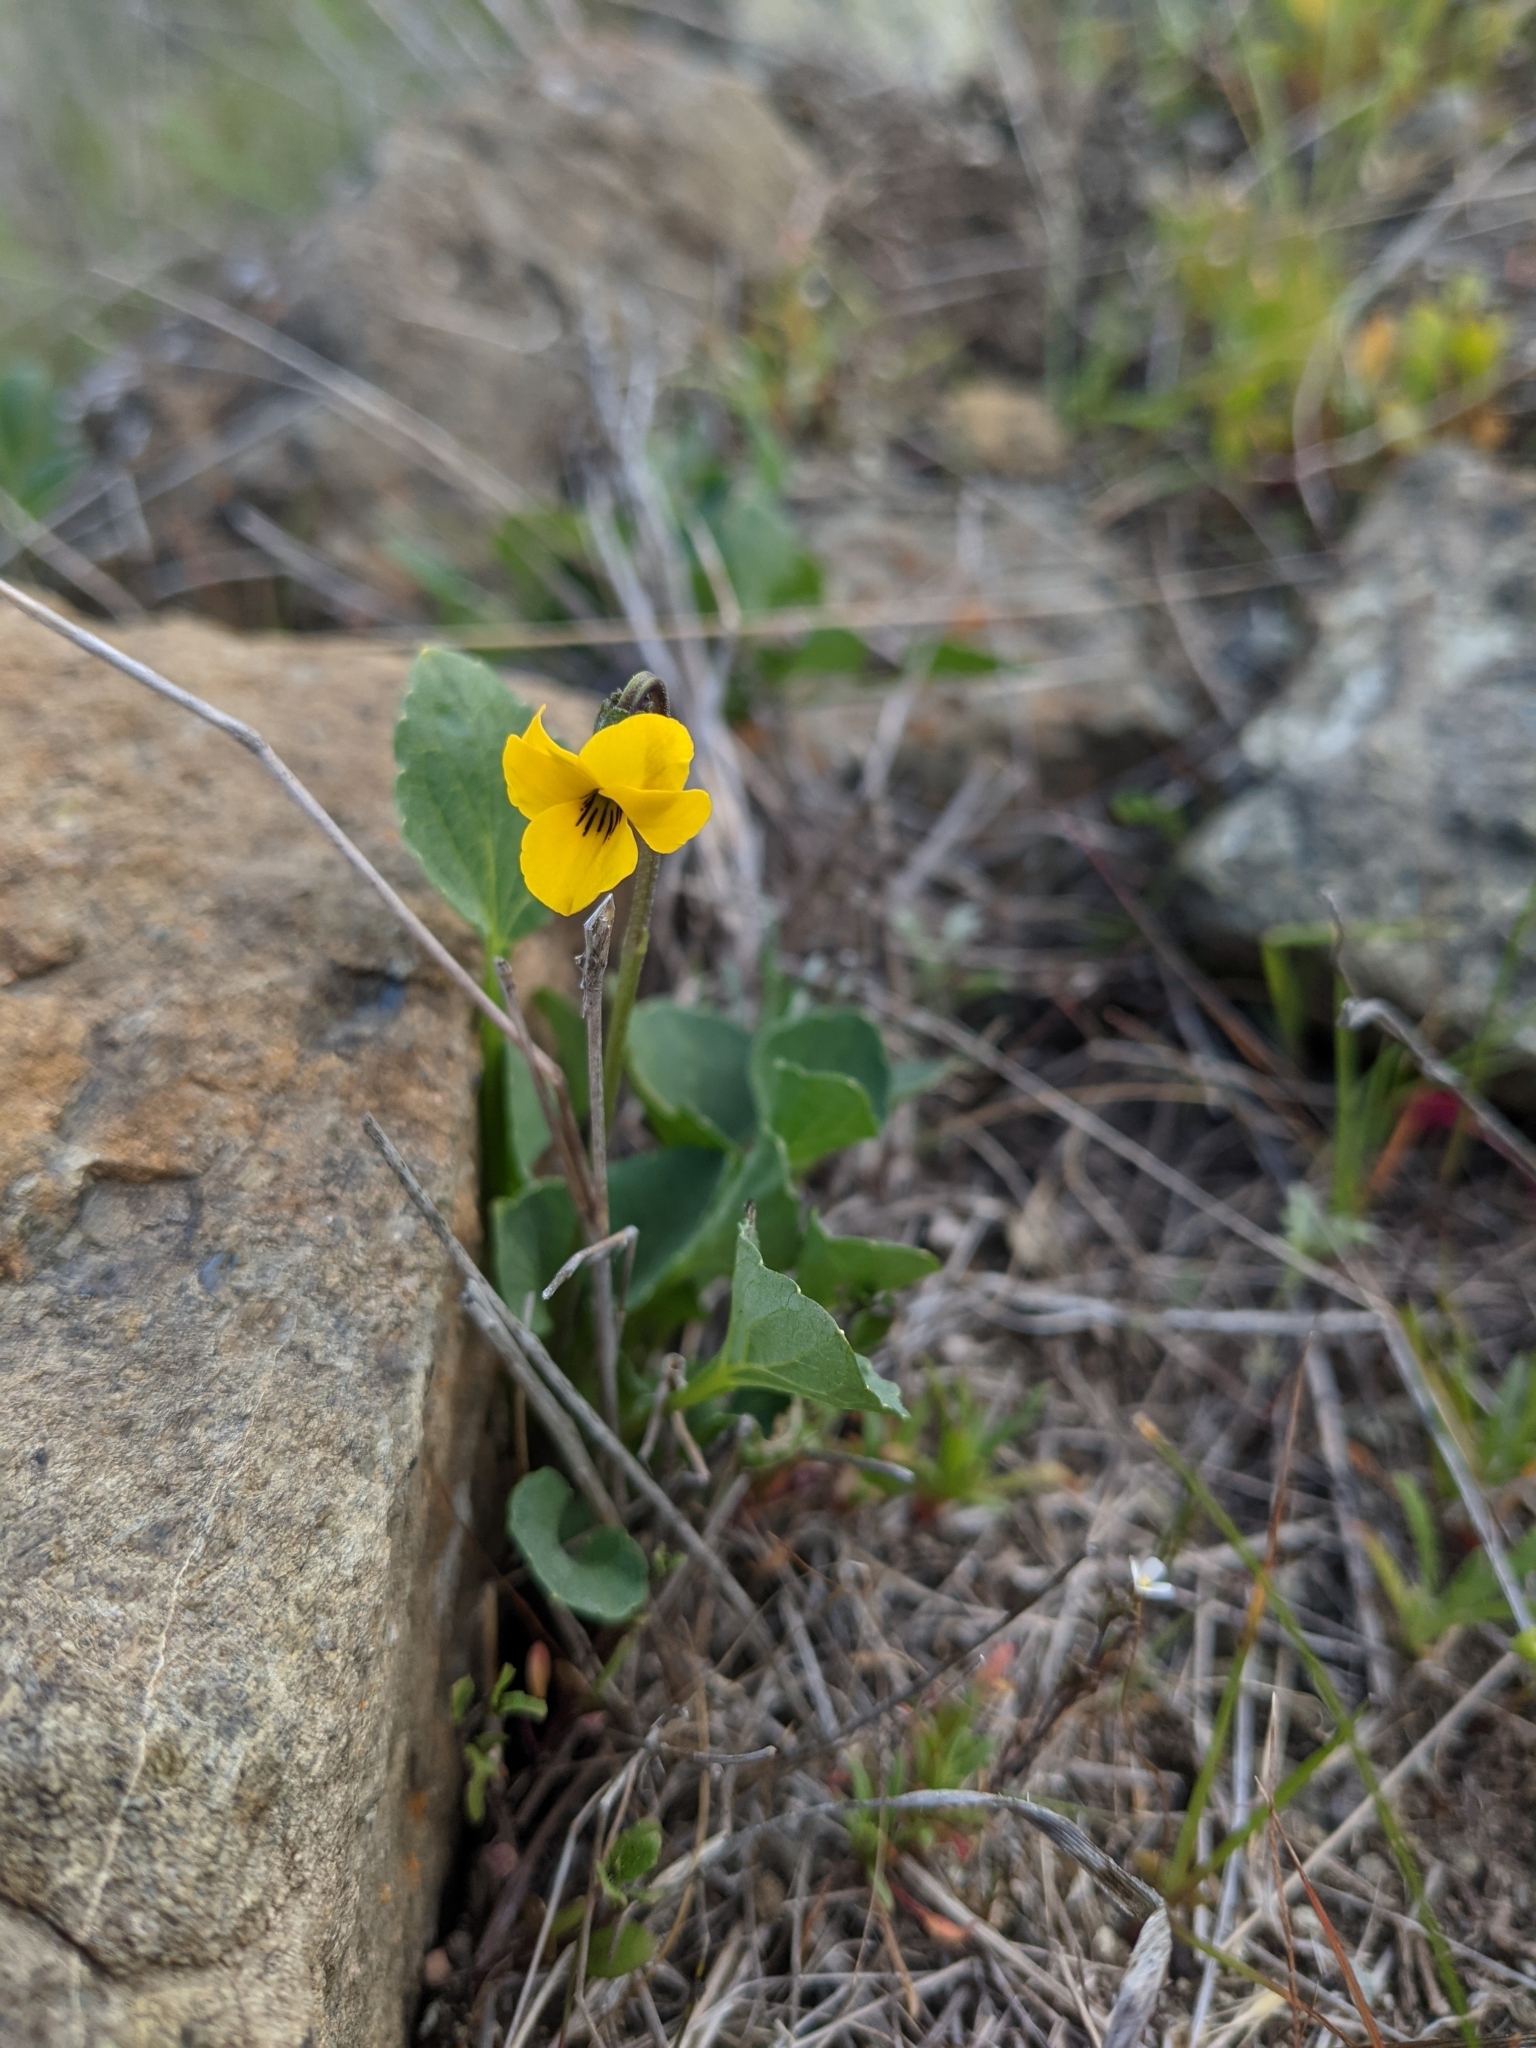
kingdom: Plantae
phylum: Tracheophyta
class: Magnoliopsida
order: Malpighiales
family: Violaceae
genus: Viola
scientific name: Viola pedunculata
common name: California golden violet
